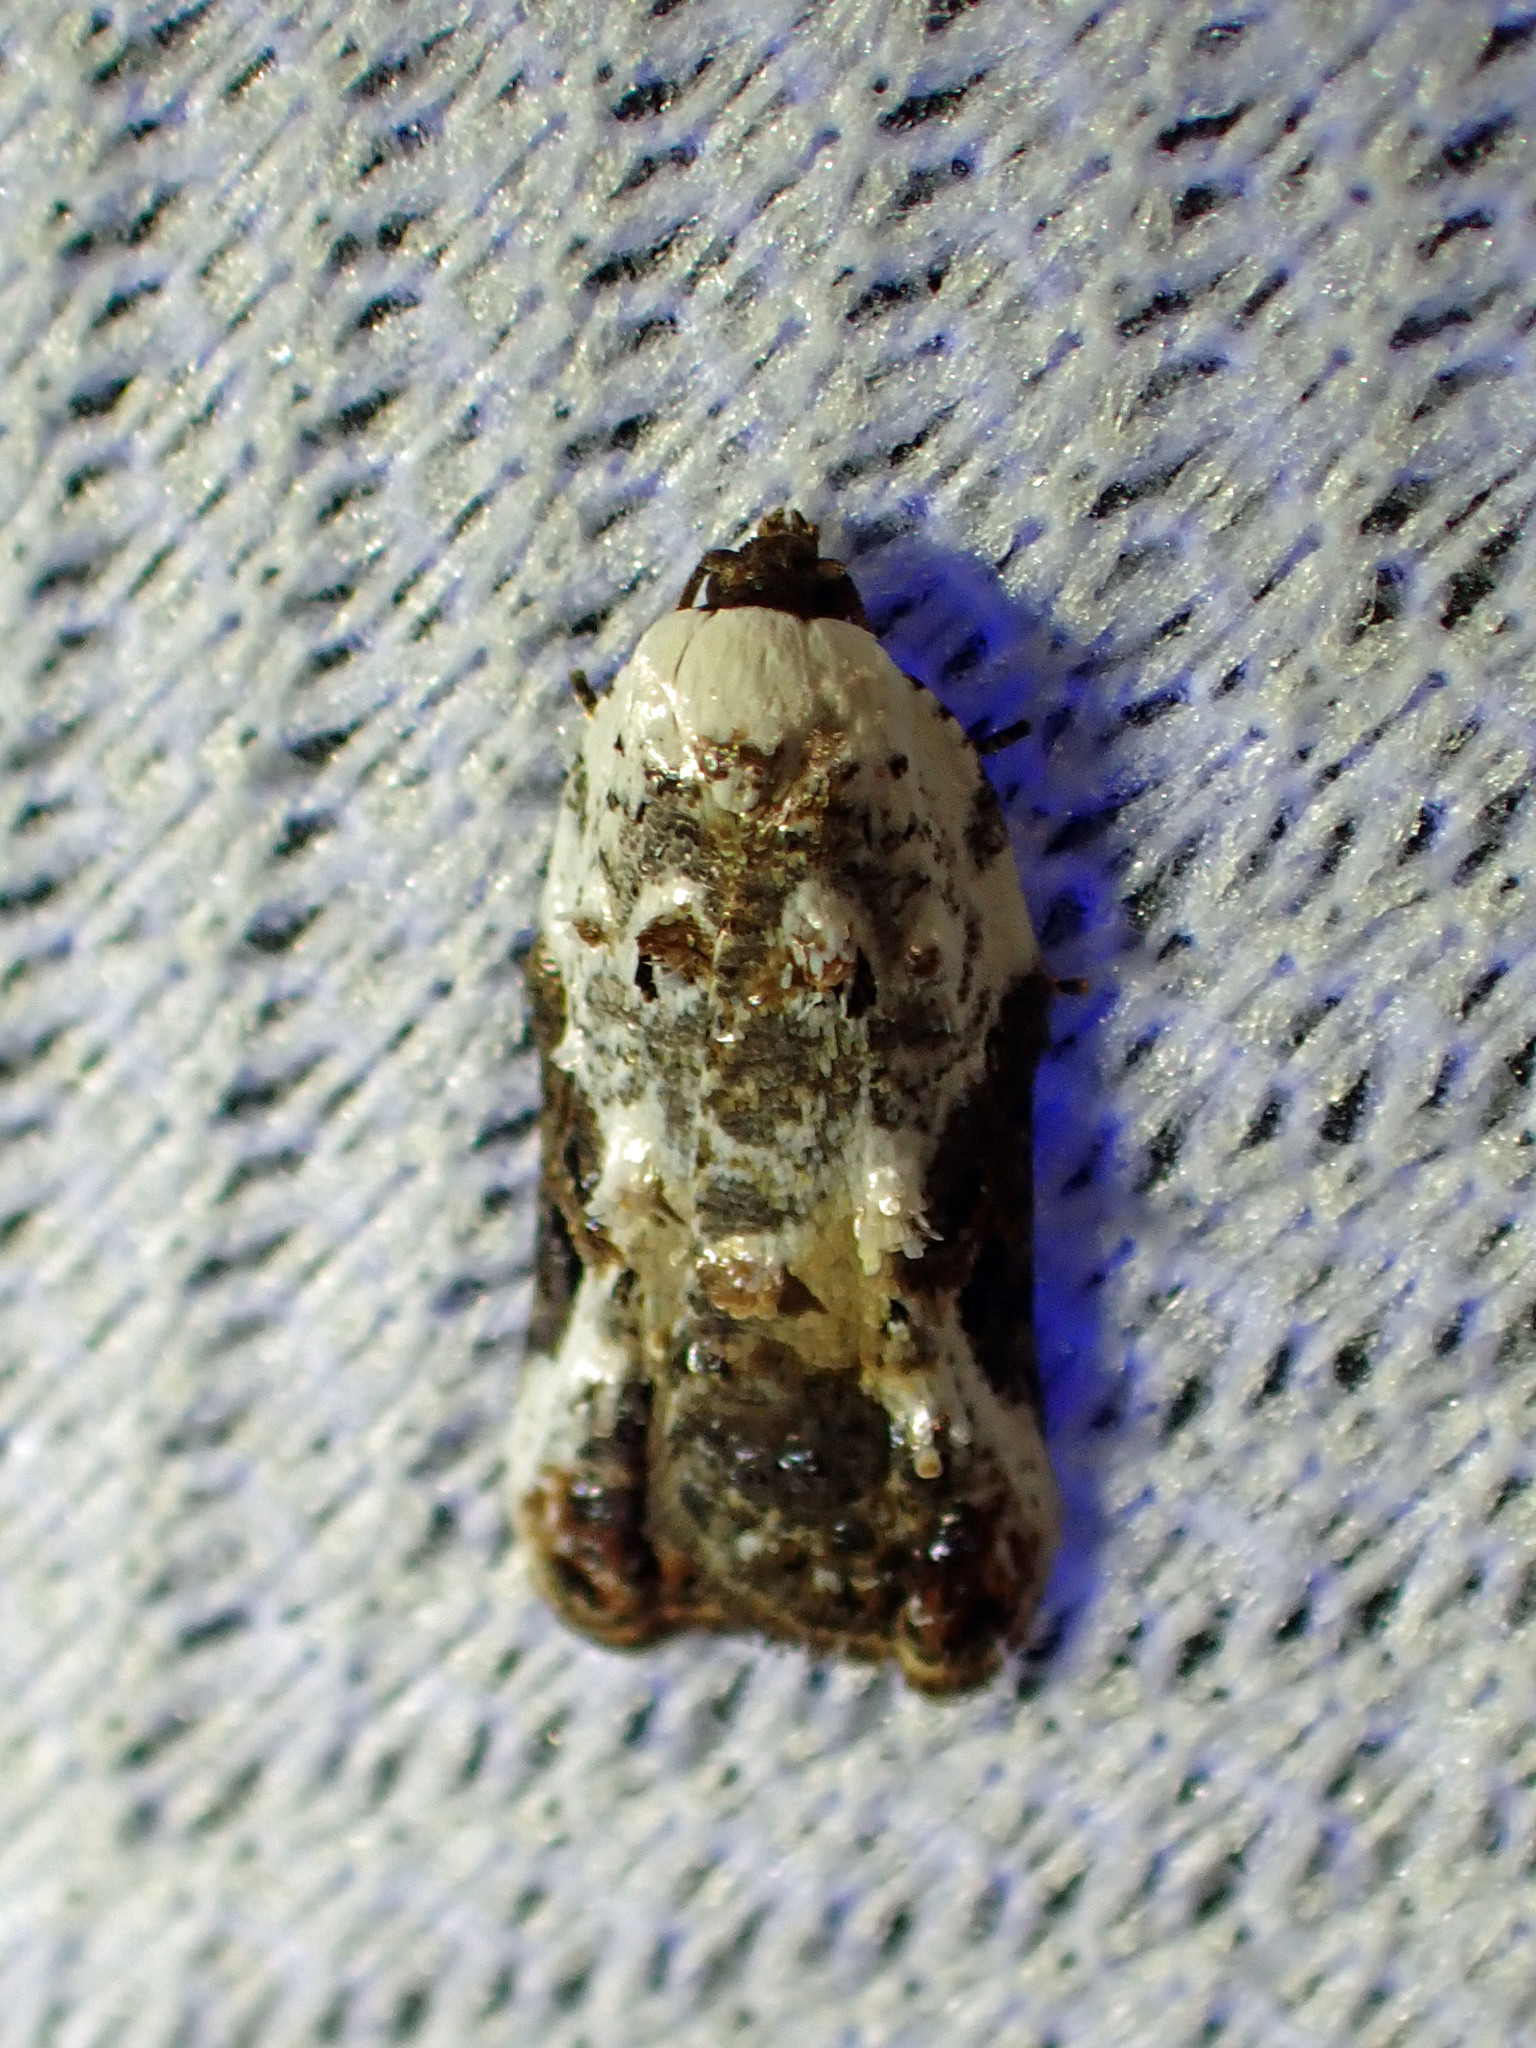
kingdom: Animalia
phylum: Arthropoda
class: Insecta
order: Lepidoptera
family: Tortricidae
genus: Acleris
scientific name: Acleris nivisellana
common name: Snowy-shouldered acleris moth
